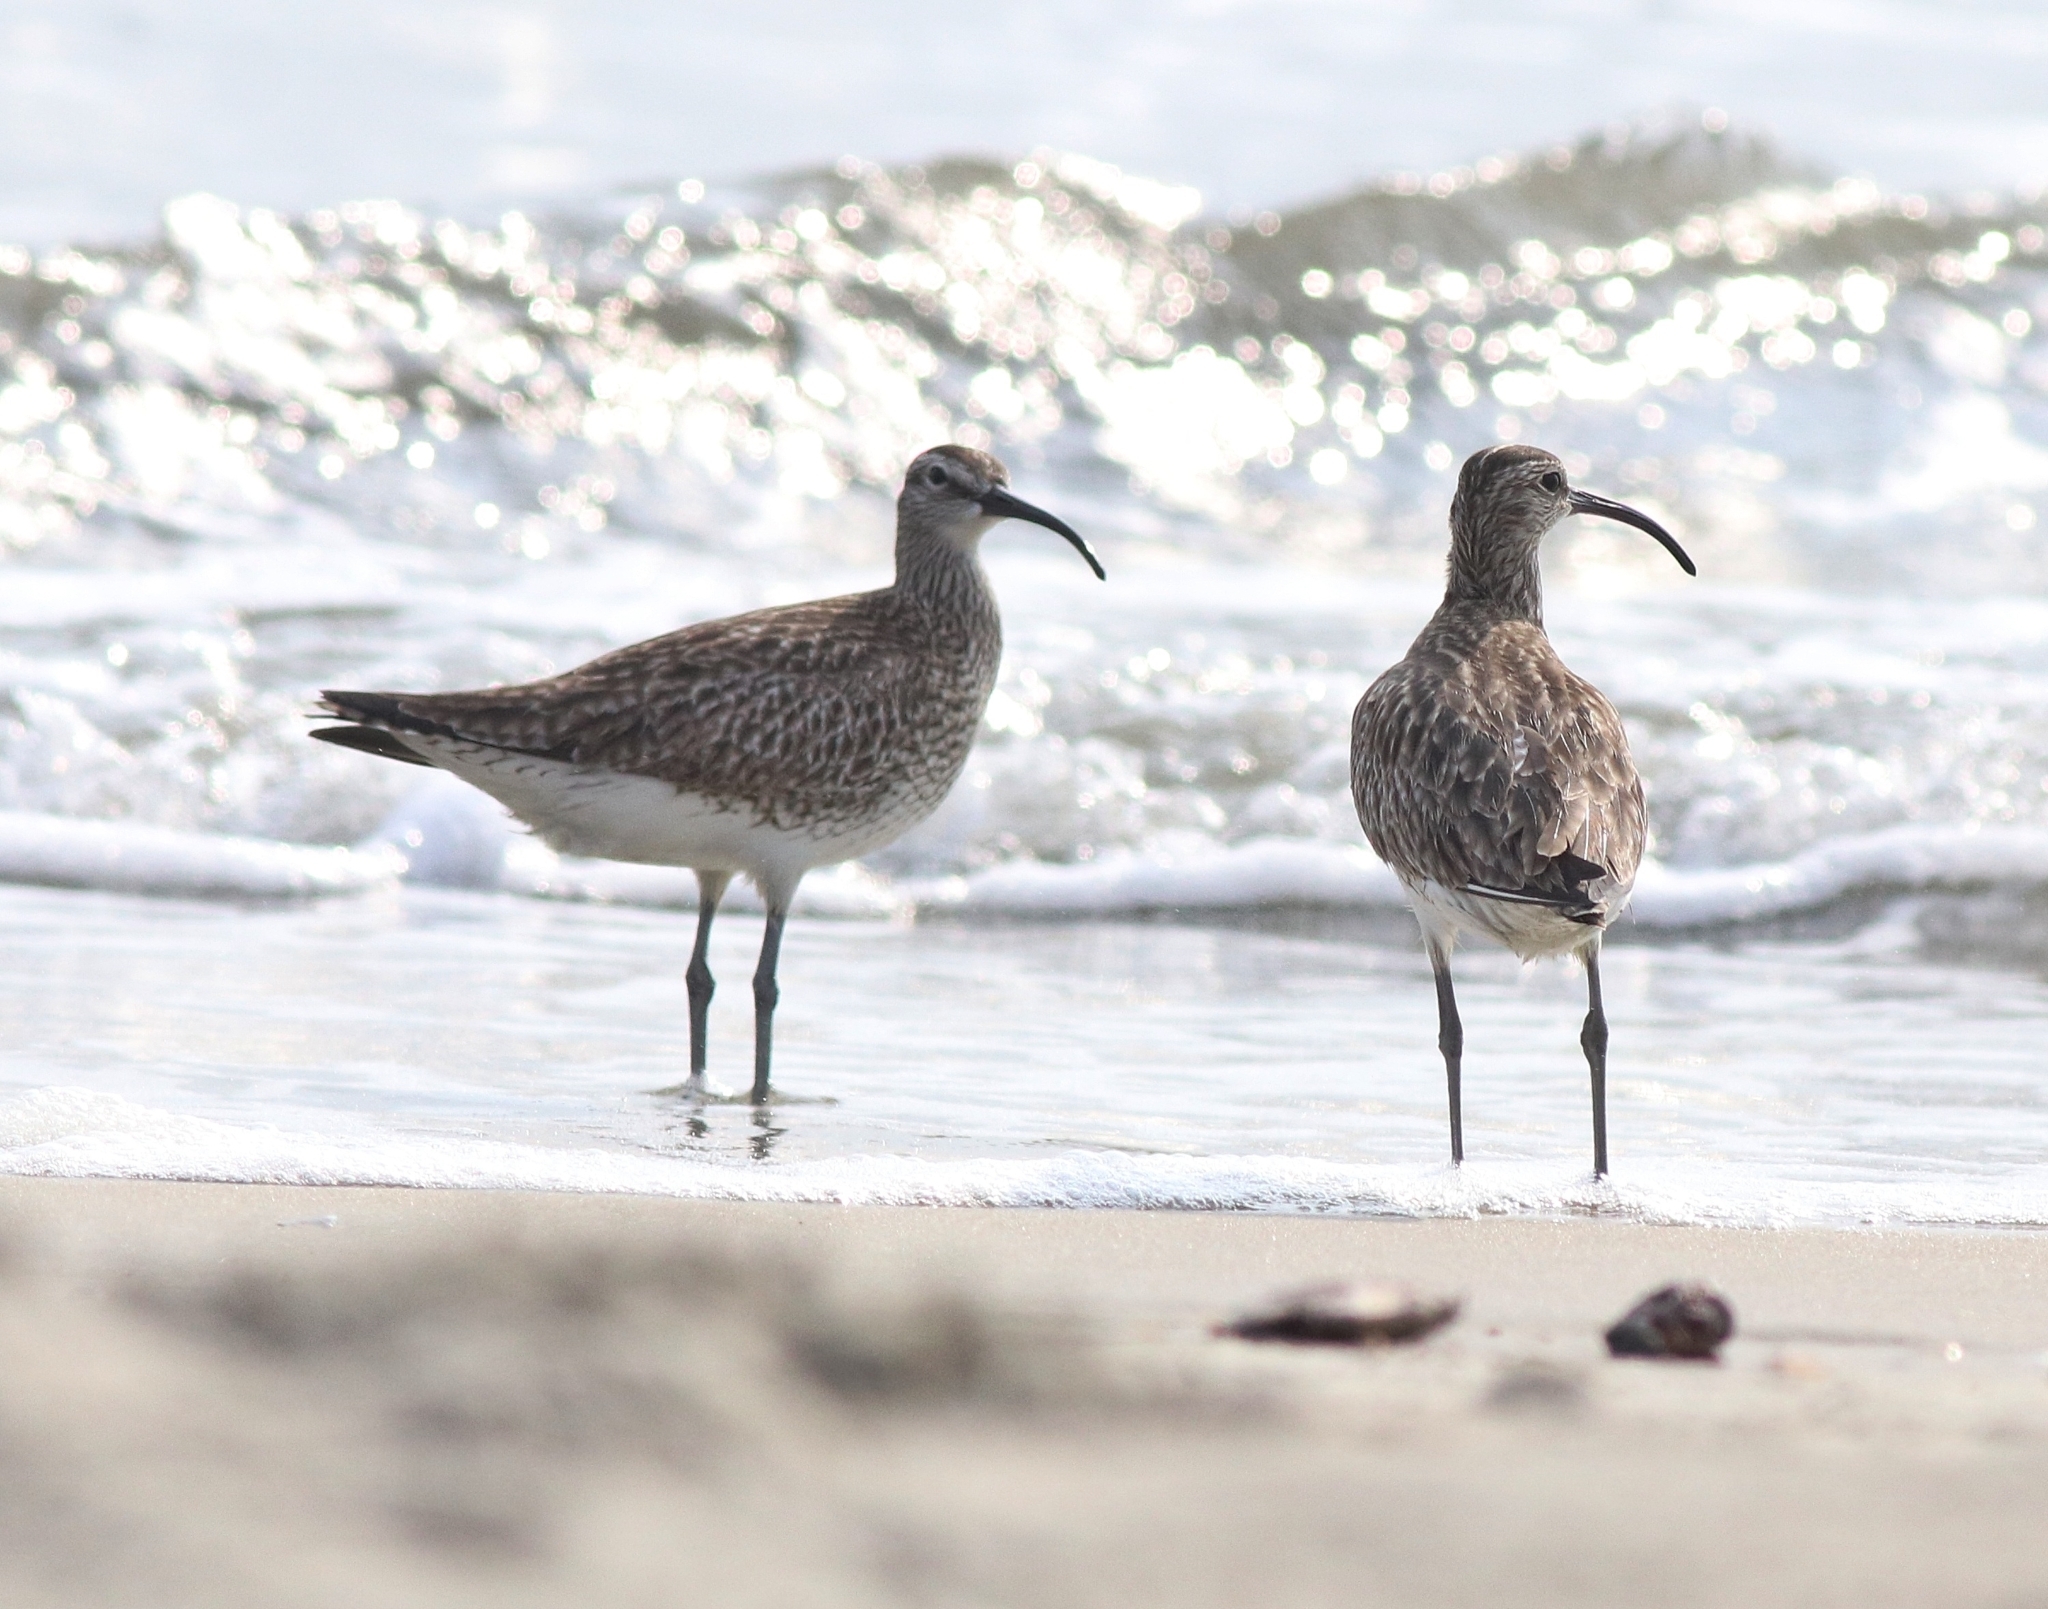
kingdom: Animalia
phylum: Chordata
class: Aves
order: Charadriiformes
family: Scolopacidae
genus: Numenius
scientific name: Numenius phaeopus
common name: Whimbrel
